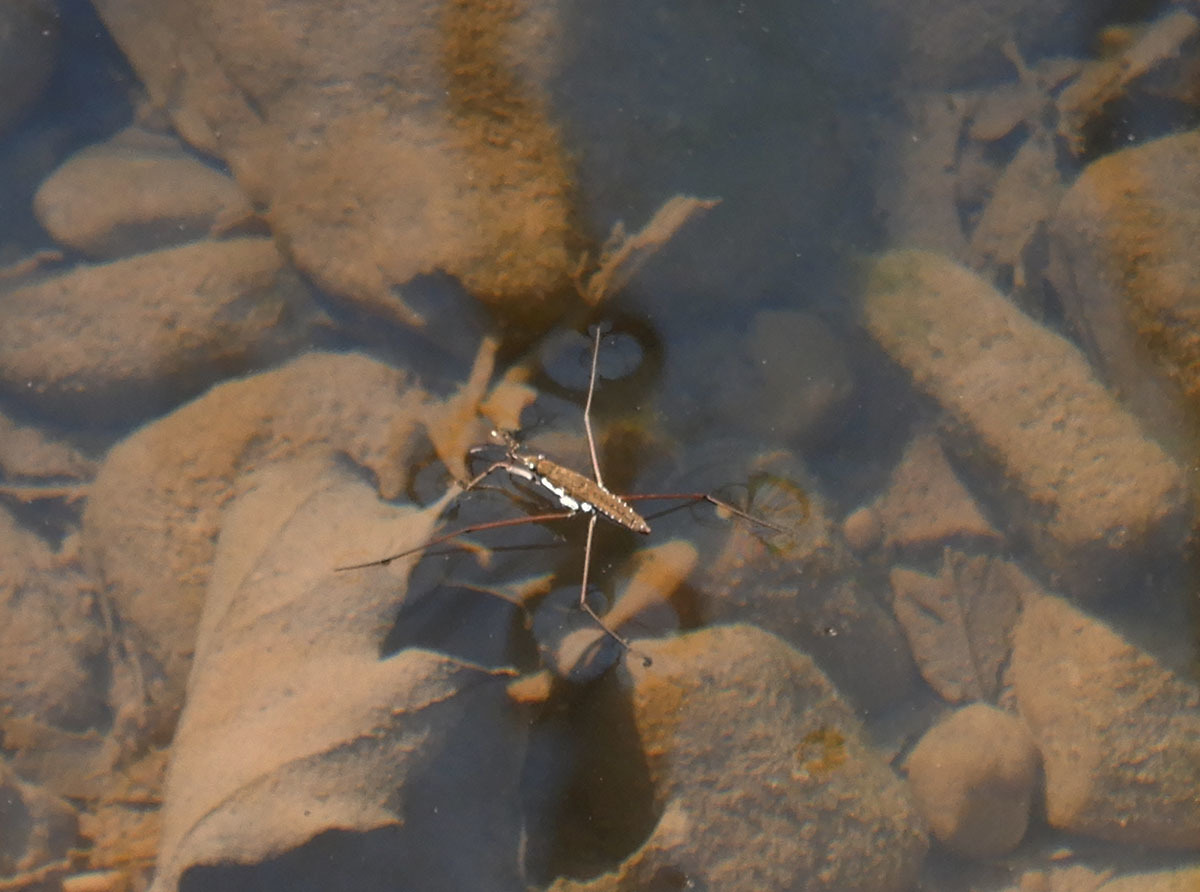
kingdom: Animalia
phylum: Arthropoda
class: Insecta
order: Hemiptera
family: Gerridae
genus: Aquarius
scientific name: Aquarius remigis
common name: Common water strider
